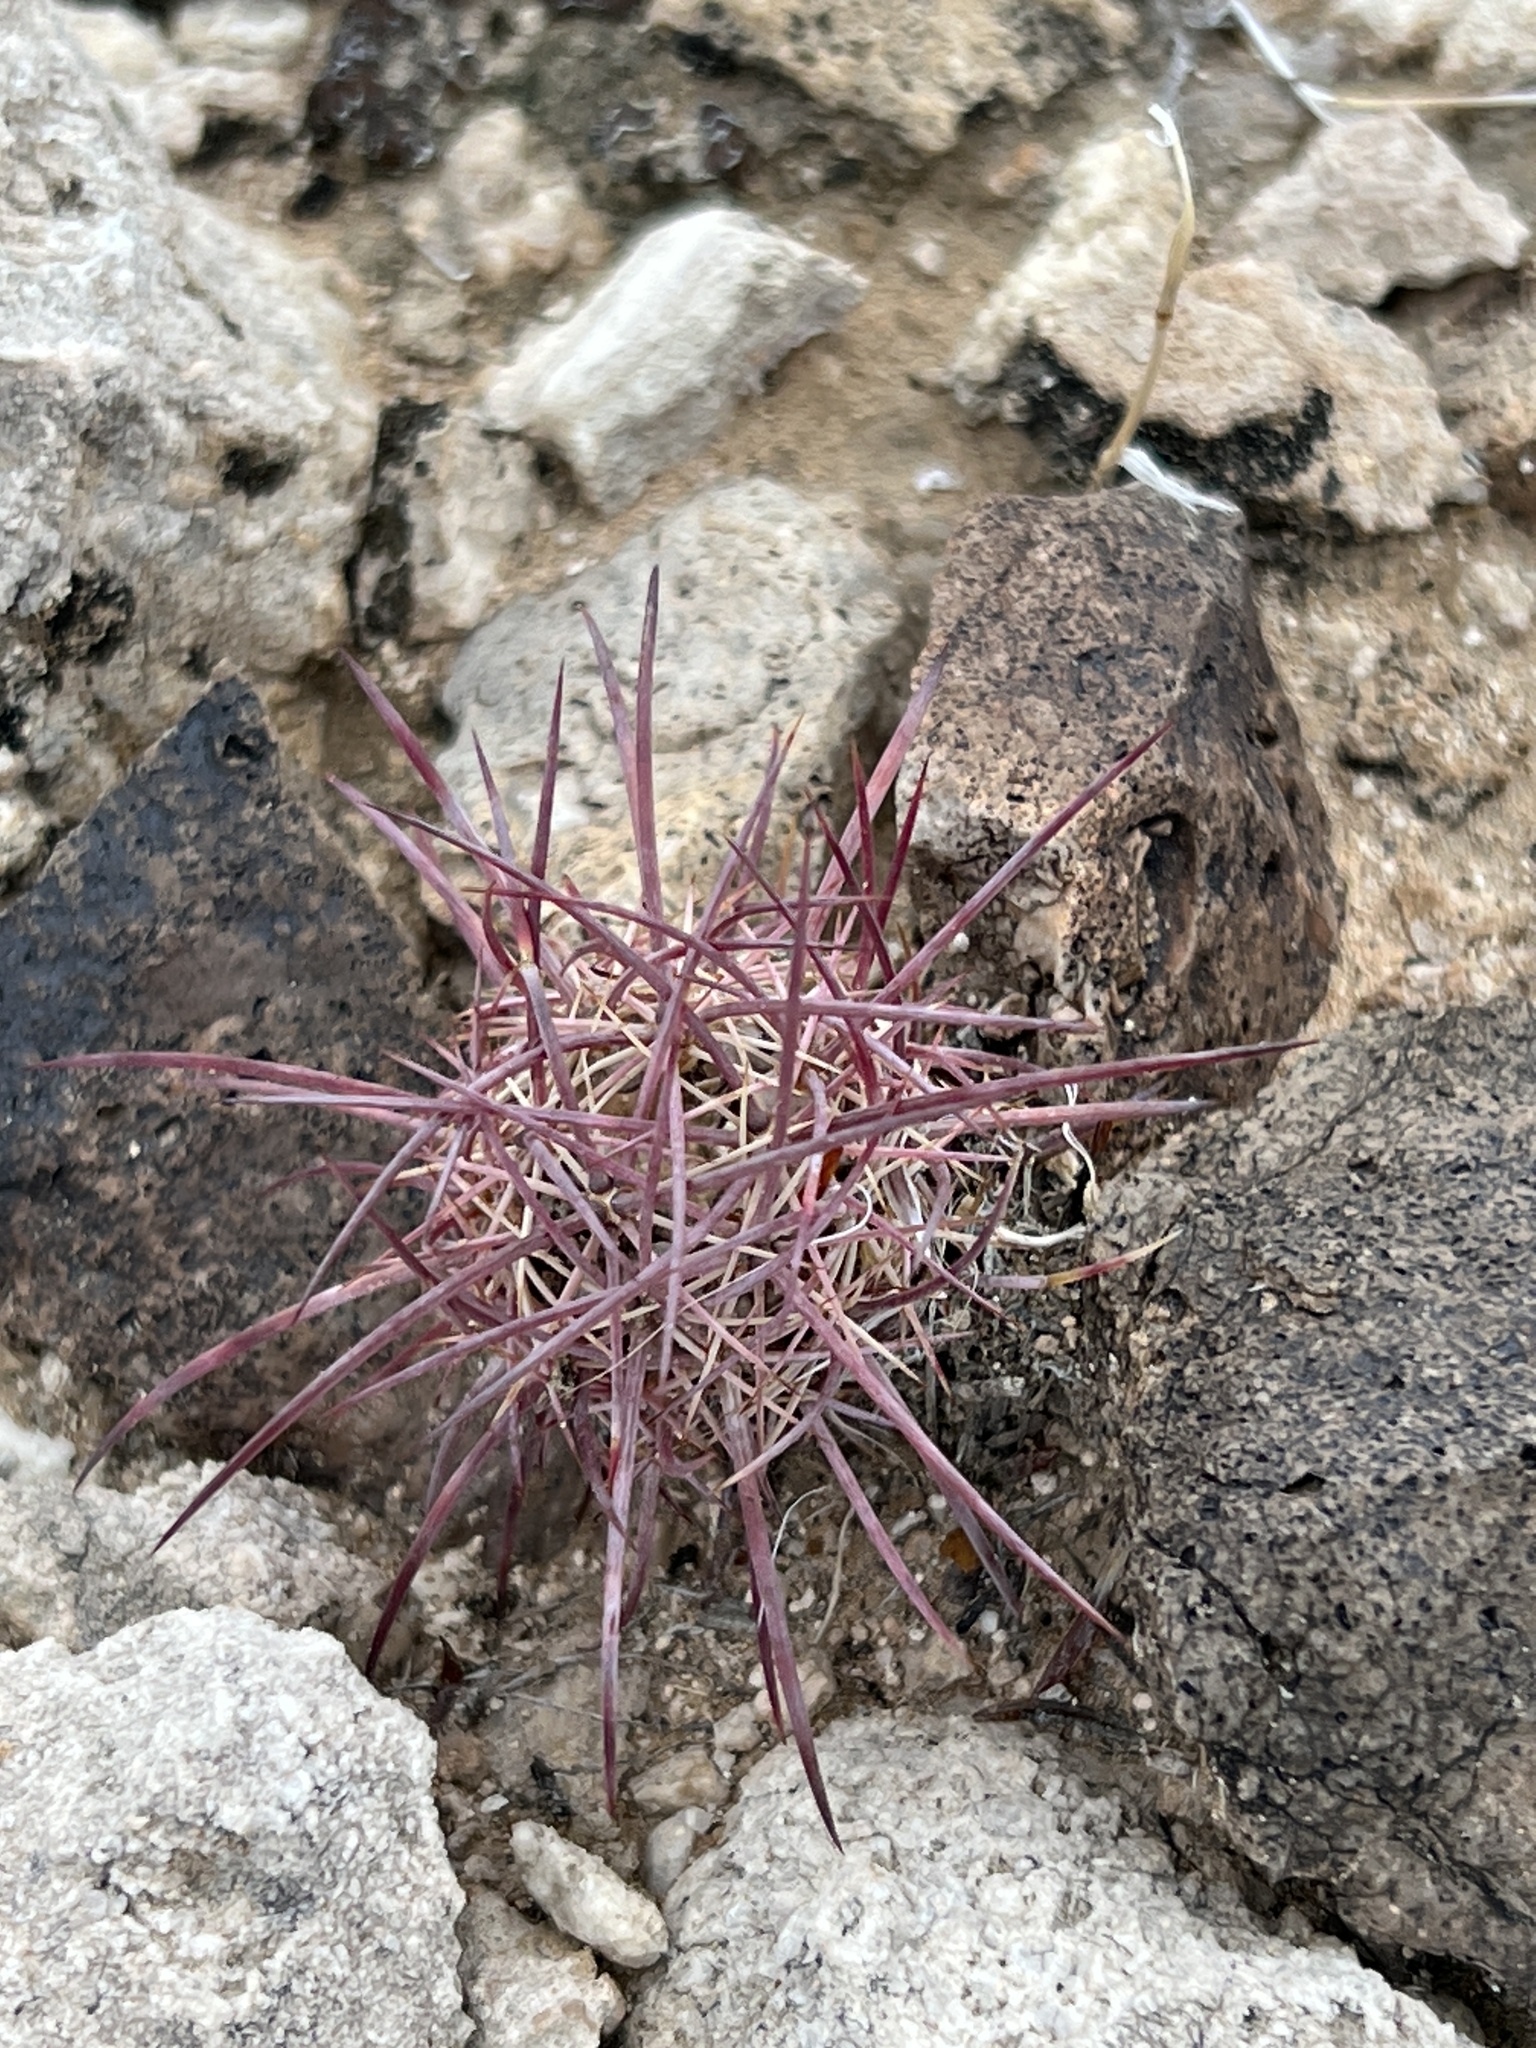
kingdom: Plantae
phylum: Tracheophyta
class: Magnoliopsida
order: Caryophyllales
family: Cactaceae
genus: Ferocactus
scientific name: Ferocactus cylindraceus
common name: California barrel cactus
